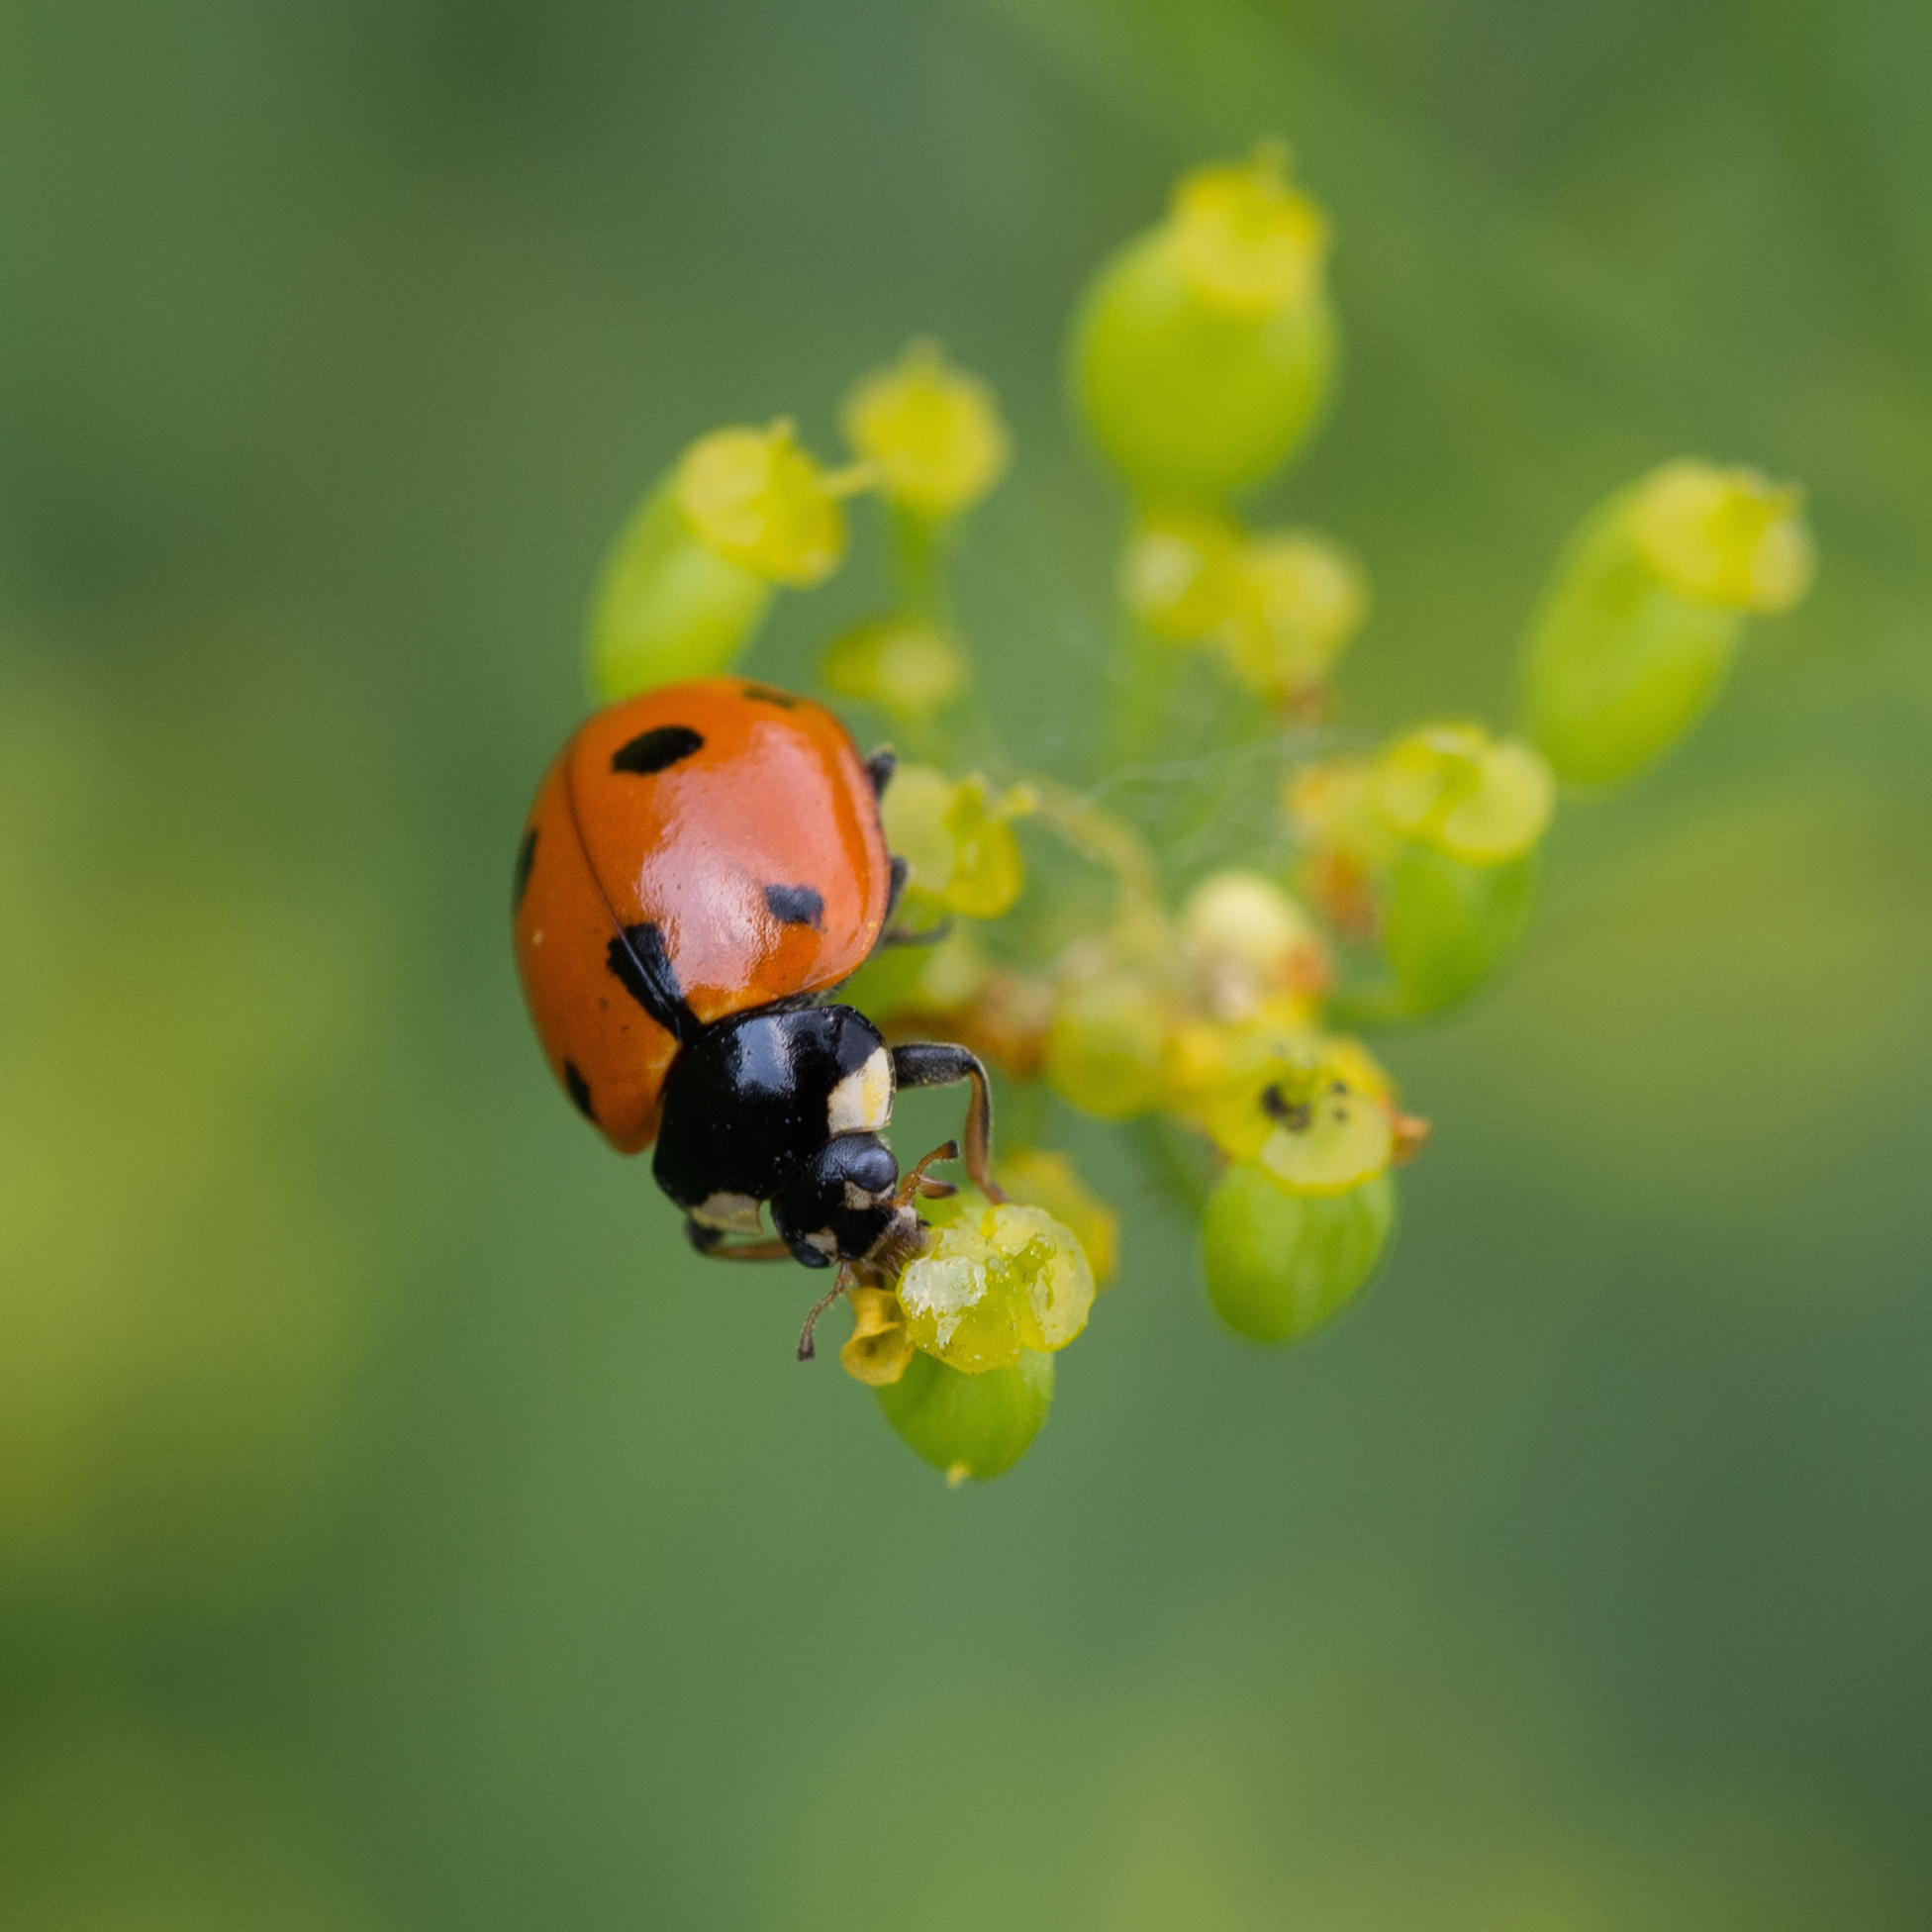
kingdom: Animalia
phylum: Arthropoda
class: Insecta
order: Coleoptera
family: Coccinellidae
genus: Coccinella
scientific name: Coccinella septempunctata
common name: Sevenspotted lady beetle
